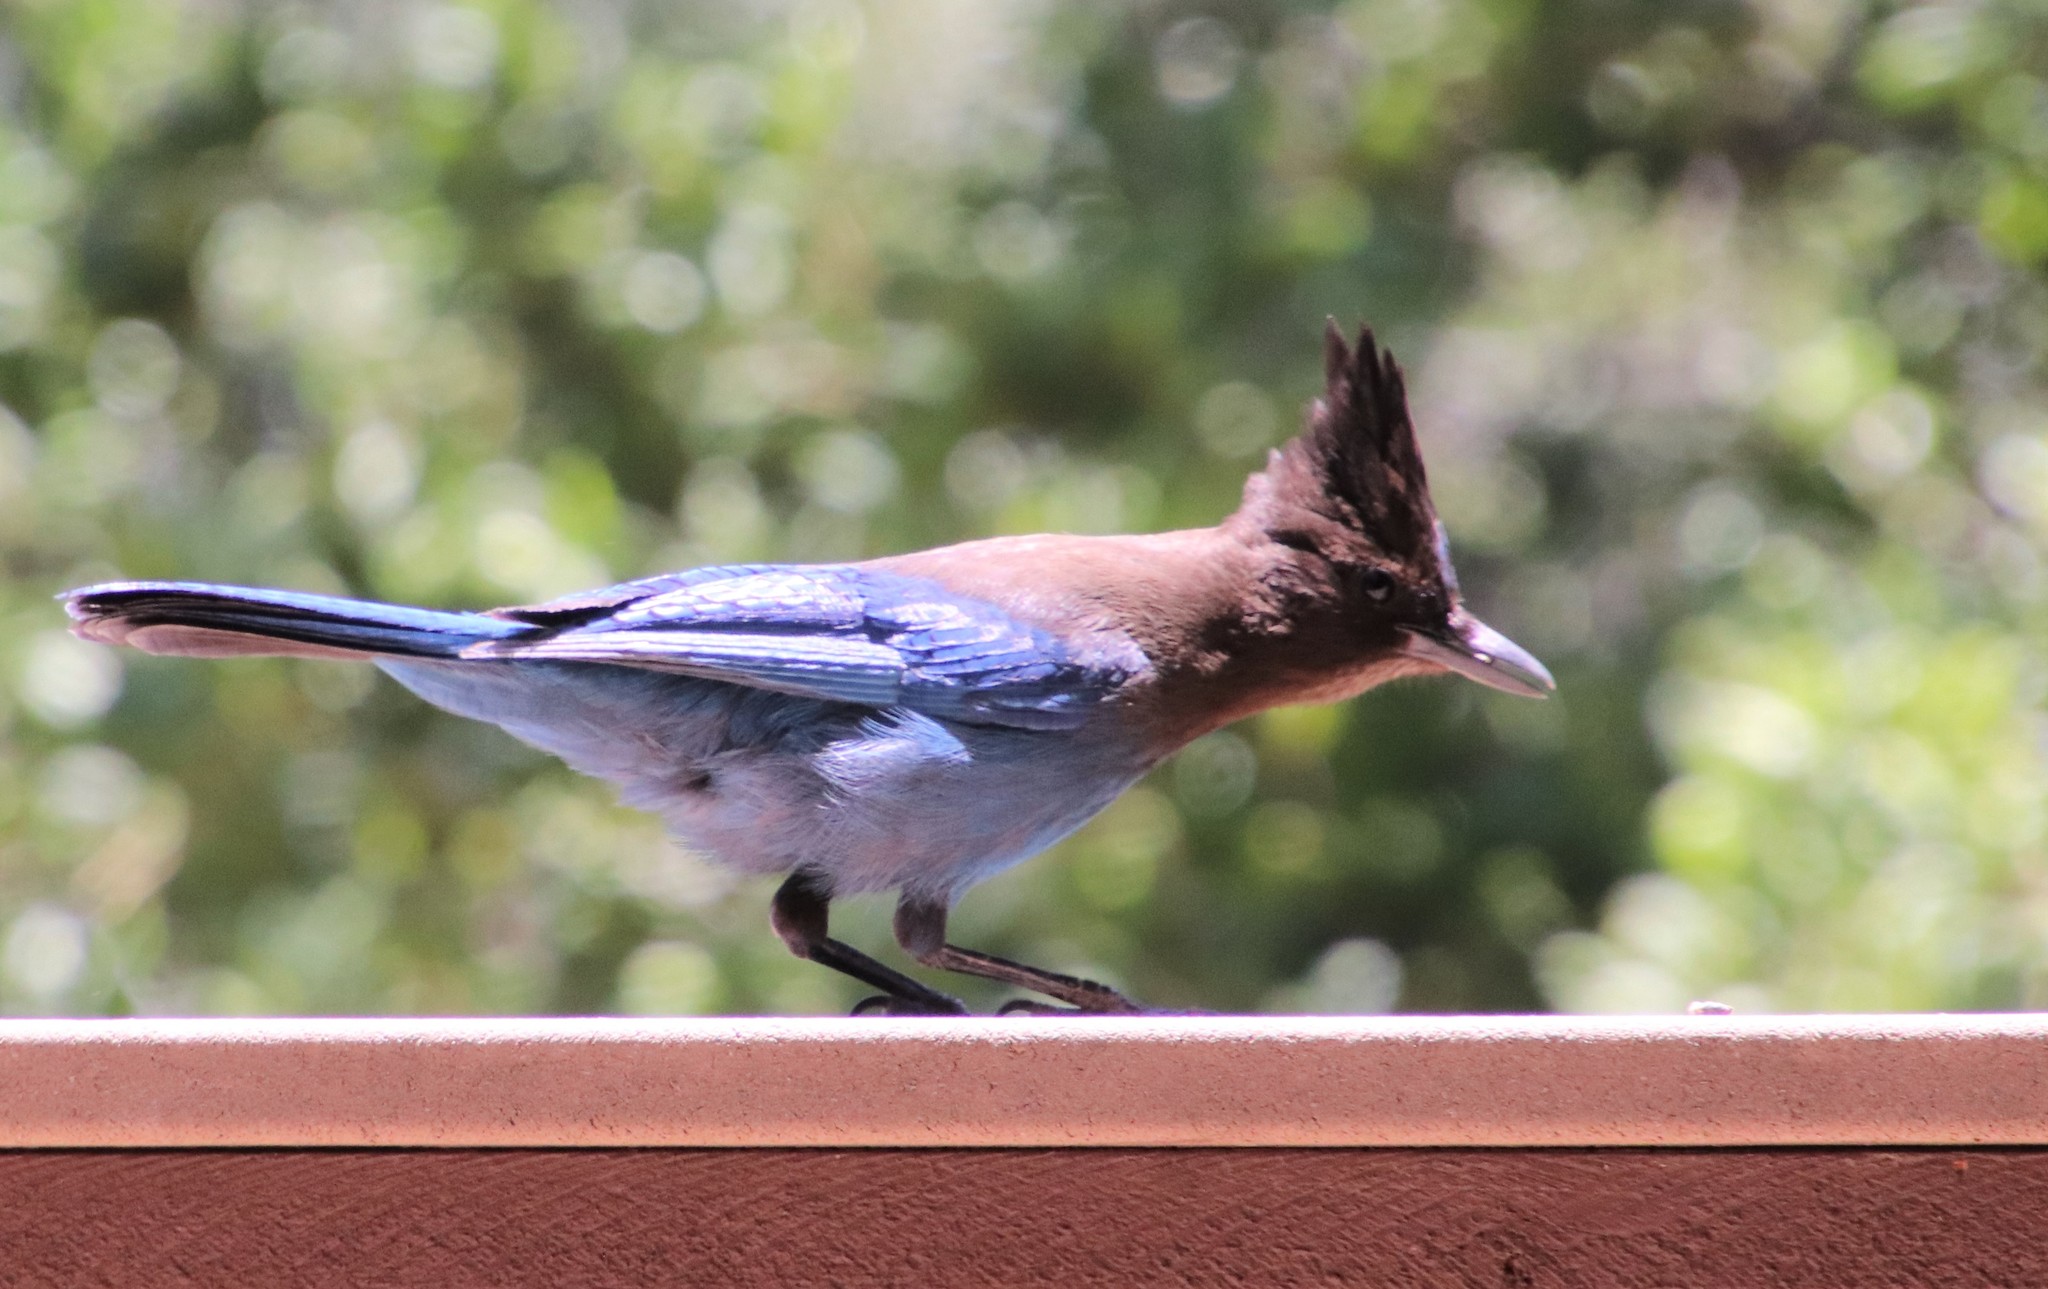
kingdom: Animalia
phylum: Chordata
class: Aves
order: Passeriformes
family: Corvidae
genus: Cyanocitta
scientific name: Cyanocitta stelleri
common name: Steller's jay
